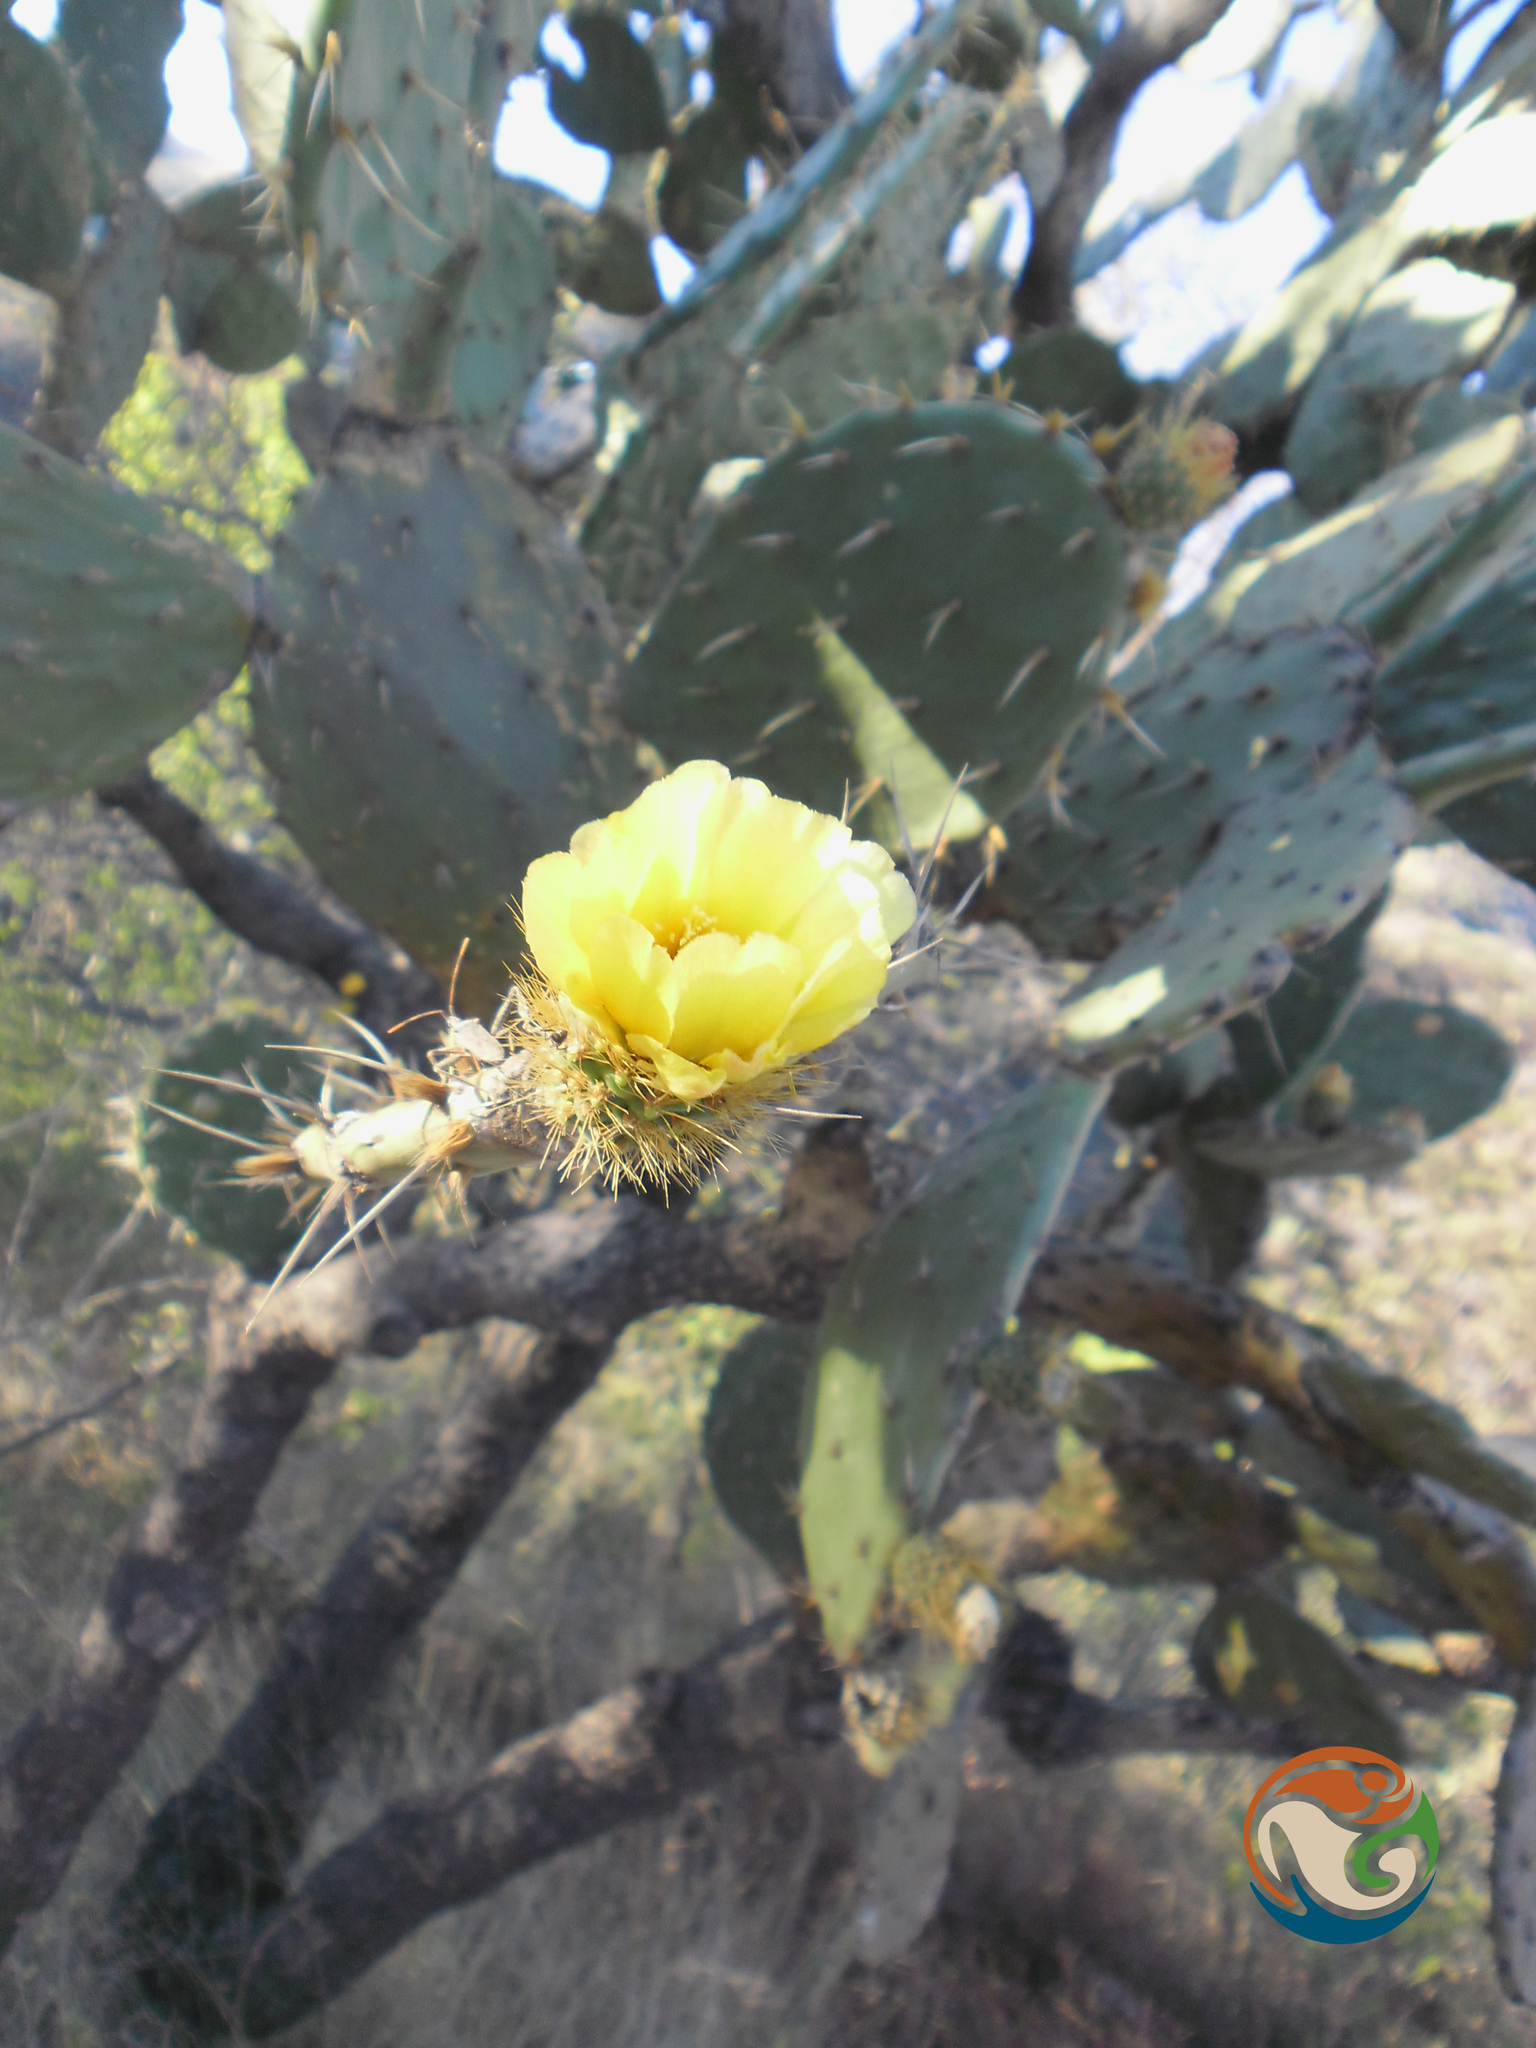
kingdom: Plantae
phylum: Tracheophyta
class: Magnoliopsida
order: Caryophyllales
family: Cactaceae
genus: Opuntia
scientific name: Opuntia velutina
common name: Velvet opuntia
